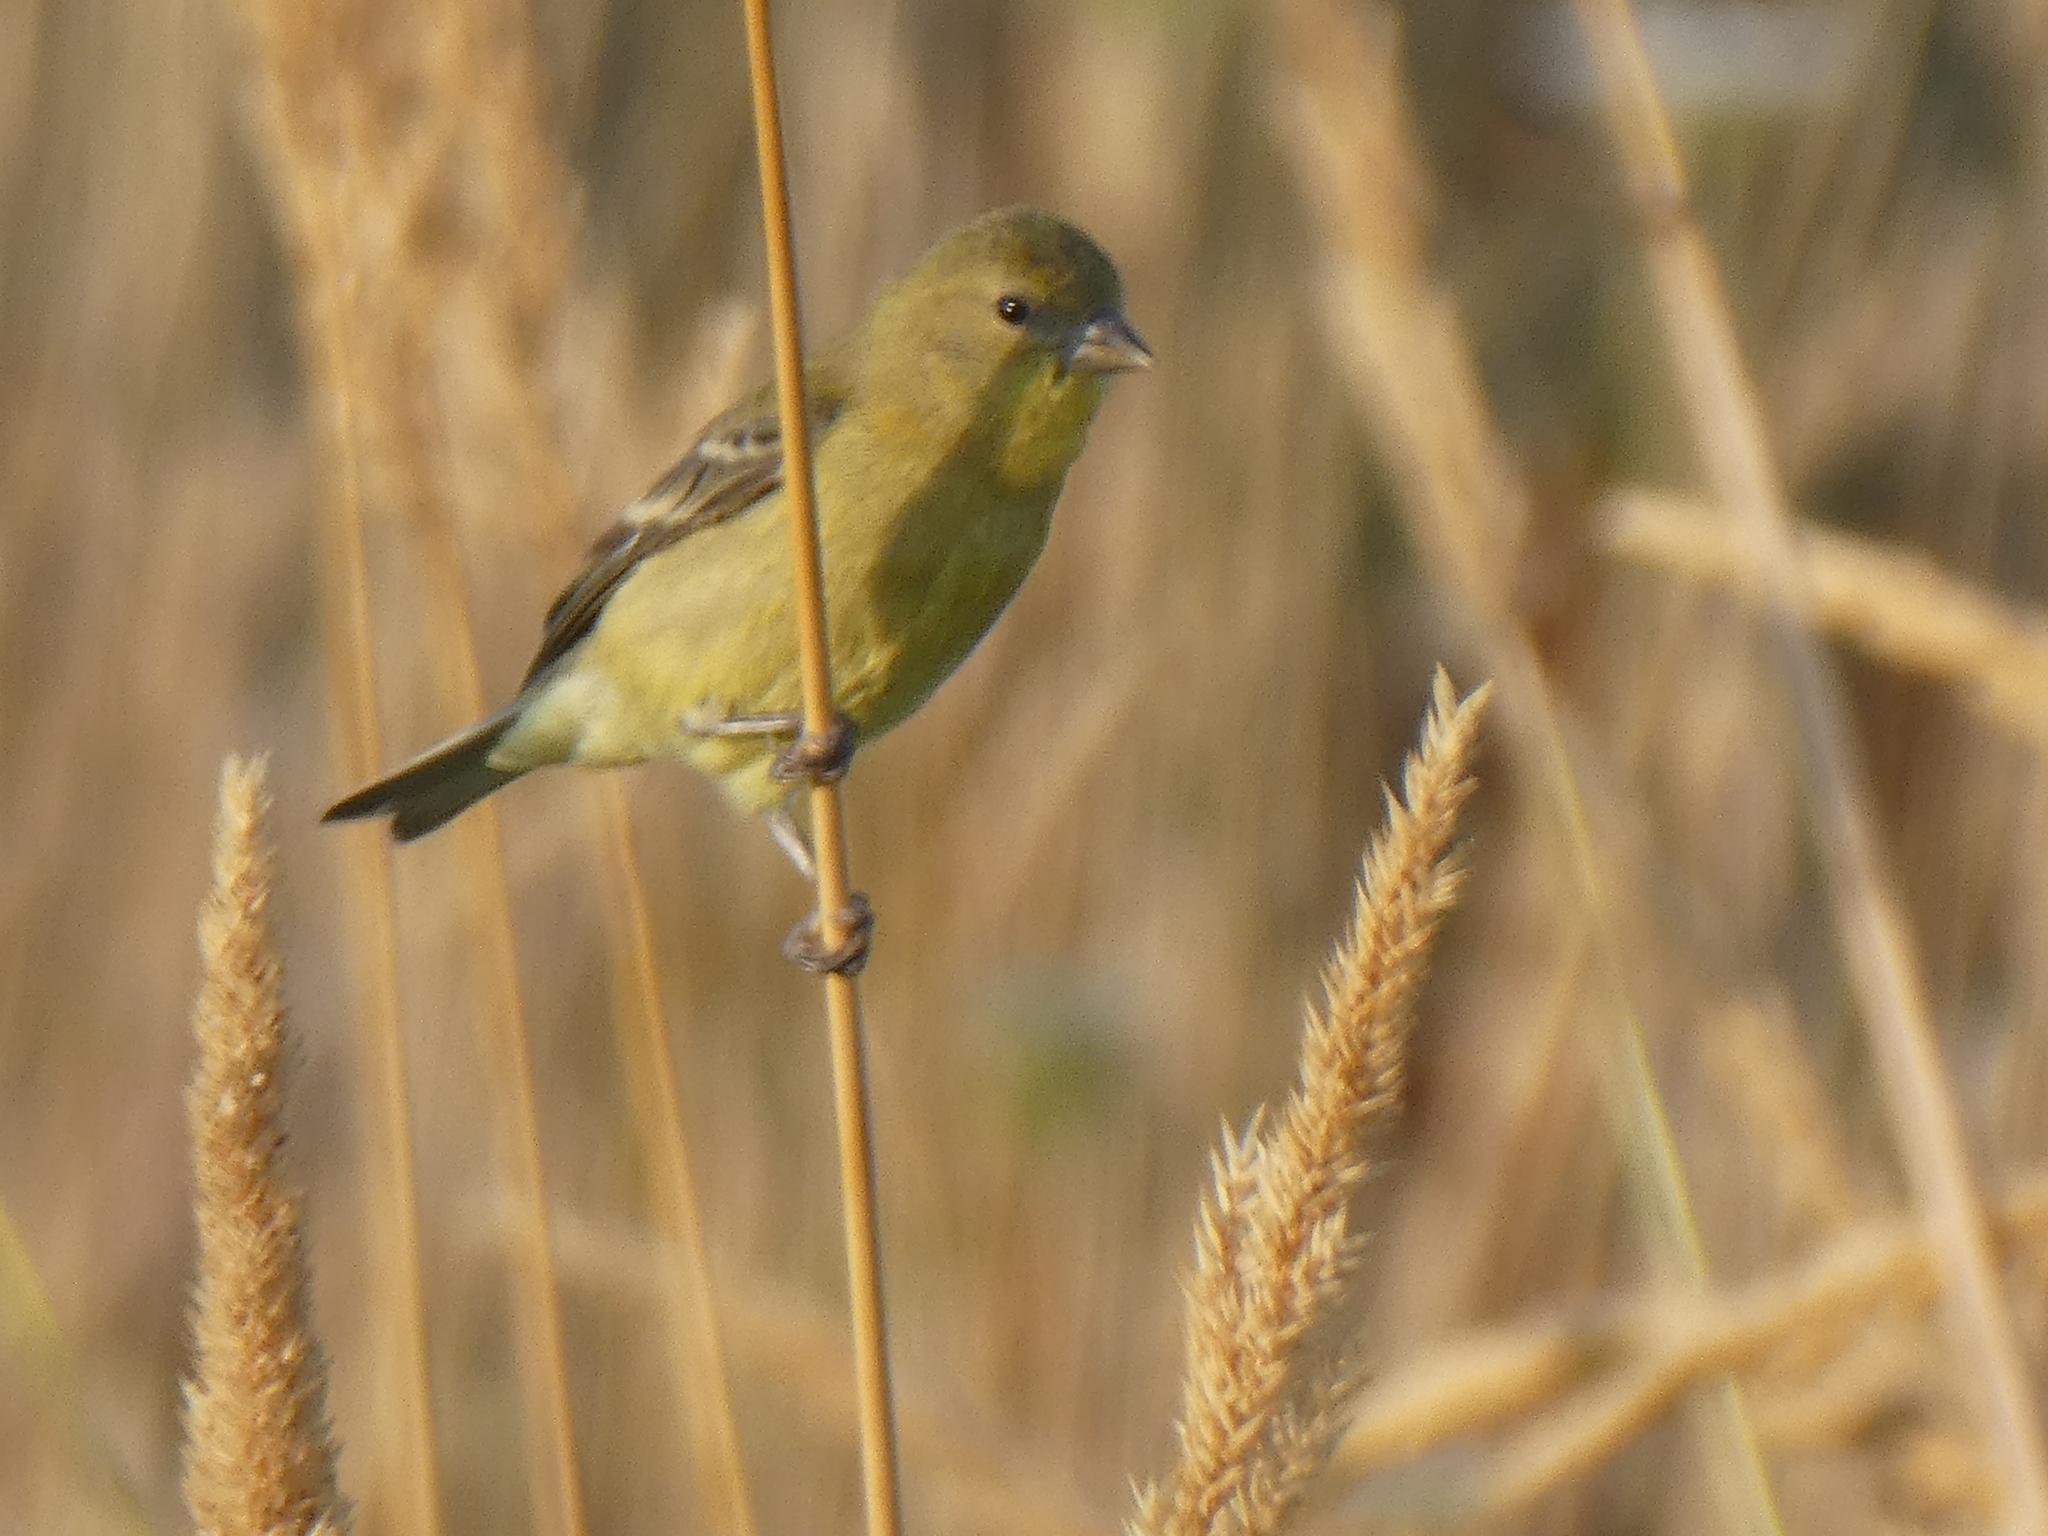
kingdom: Animalia
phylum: Chordata
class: Aves
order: Passeriformes
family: Fringillidae
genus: Spinus
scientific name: Spinus psaltria
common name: Lesser goldfinch
